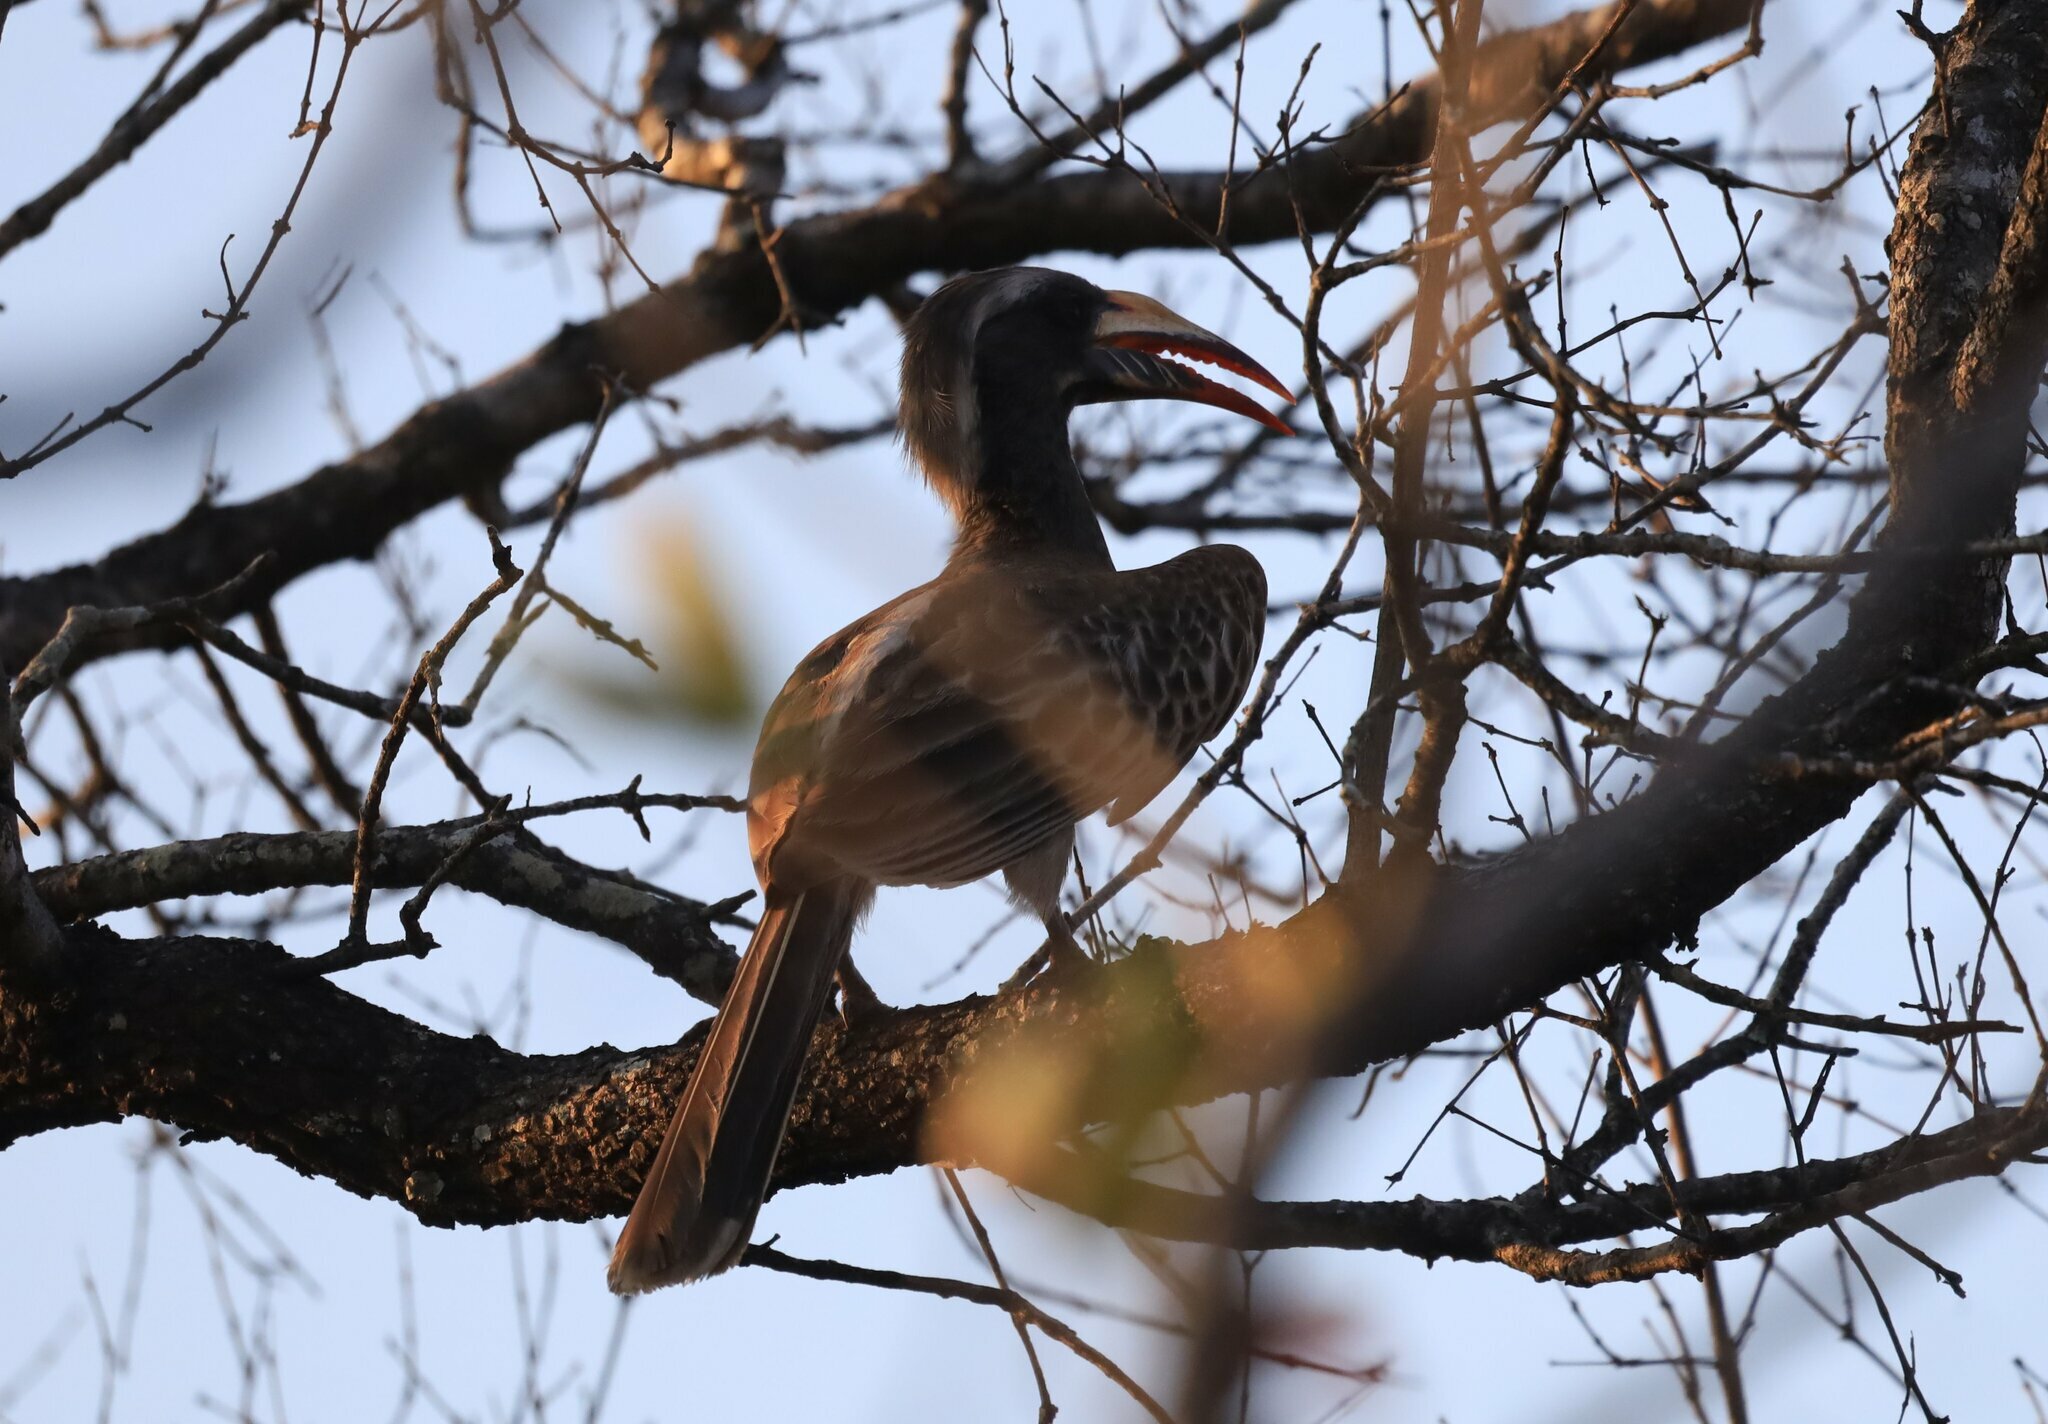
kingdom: Animalia
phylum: Chordata
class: Aves
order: Bucerotiformes
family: Bucerotidae
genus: Lophoceros
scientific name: Lophoceros nasutus
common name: African grey hornbill
